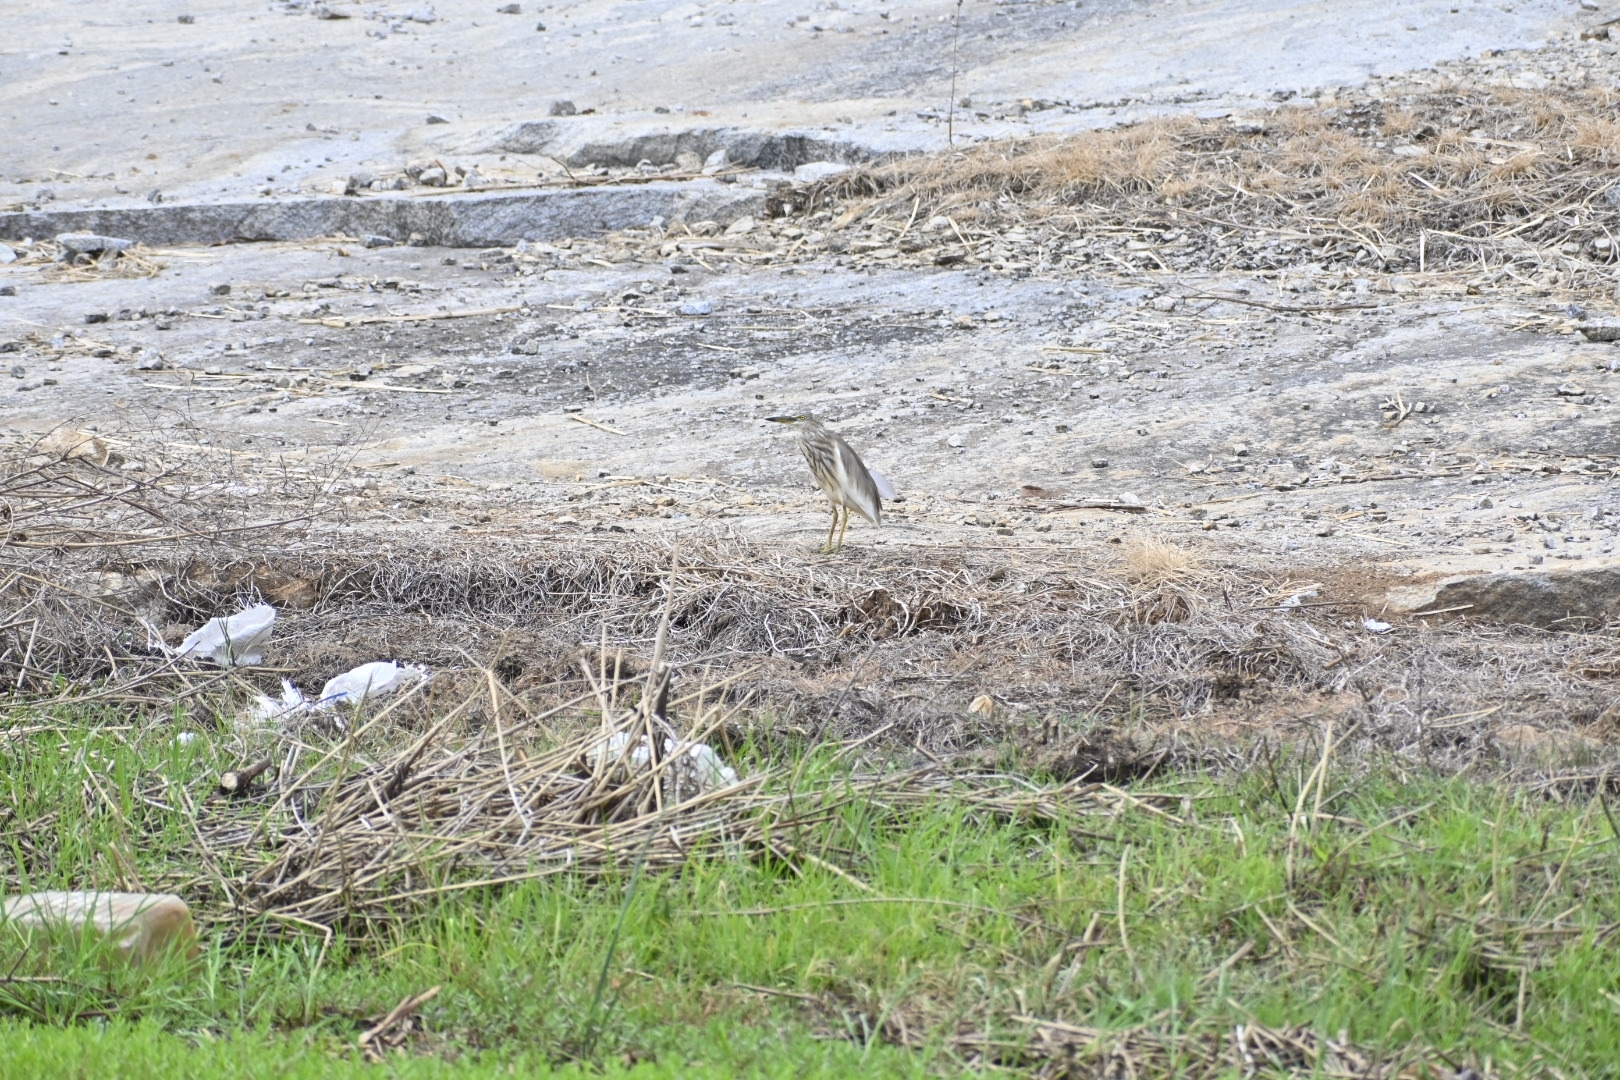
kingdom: Animalia
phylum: Chordata
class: Aves
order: Pelecaniformes
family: Ardeidae
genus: Ardeola
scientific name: Ardeola grayii
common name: Indian pond heron
